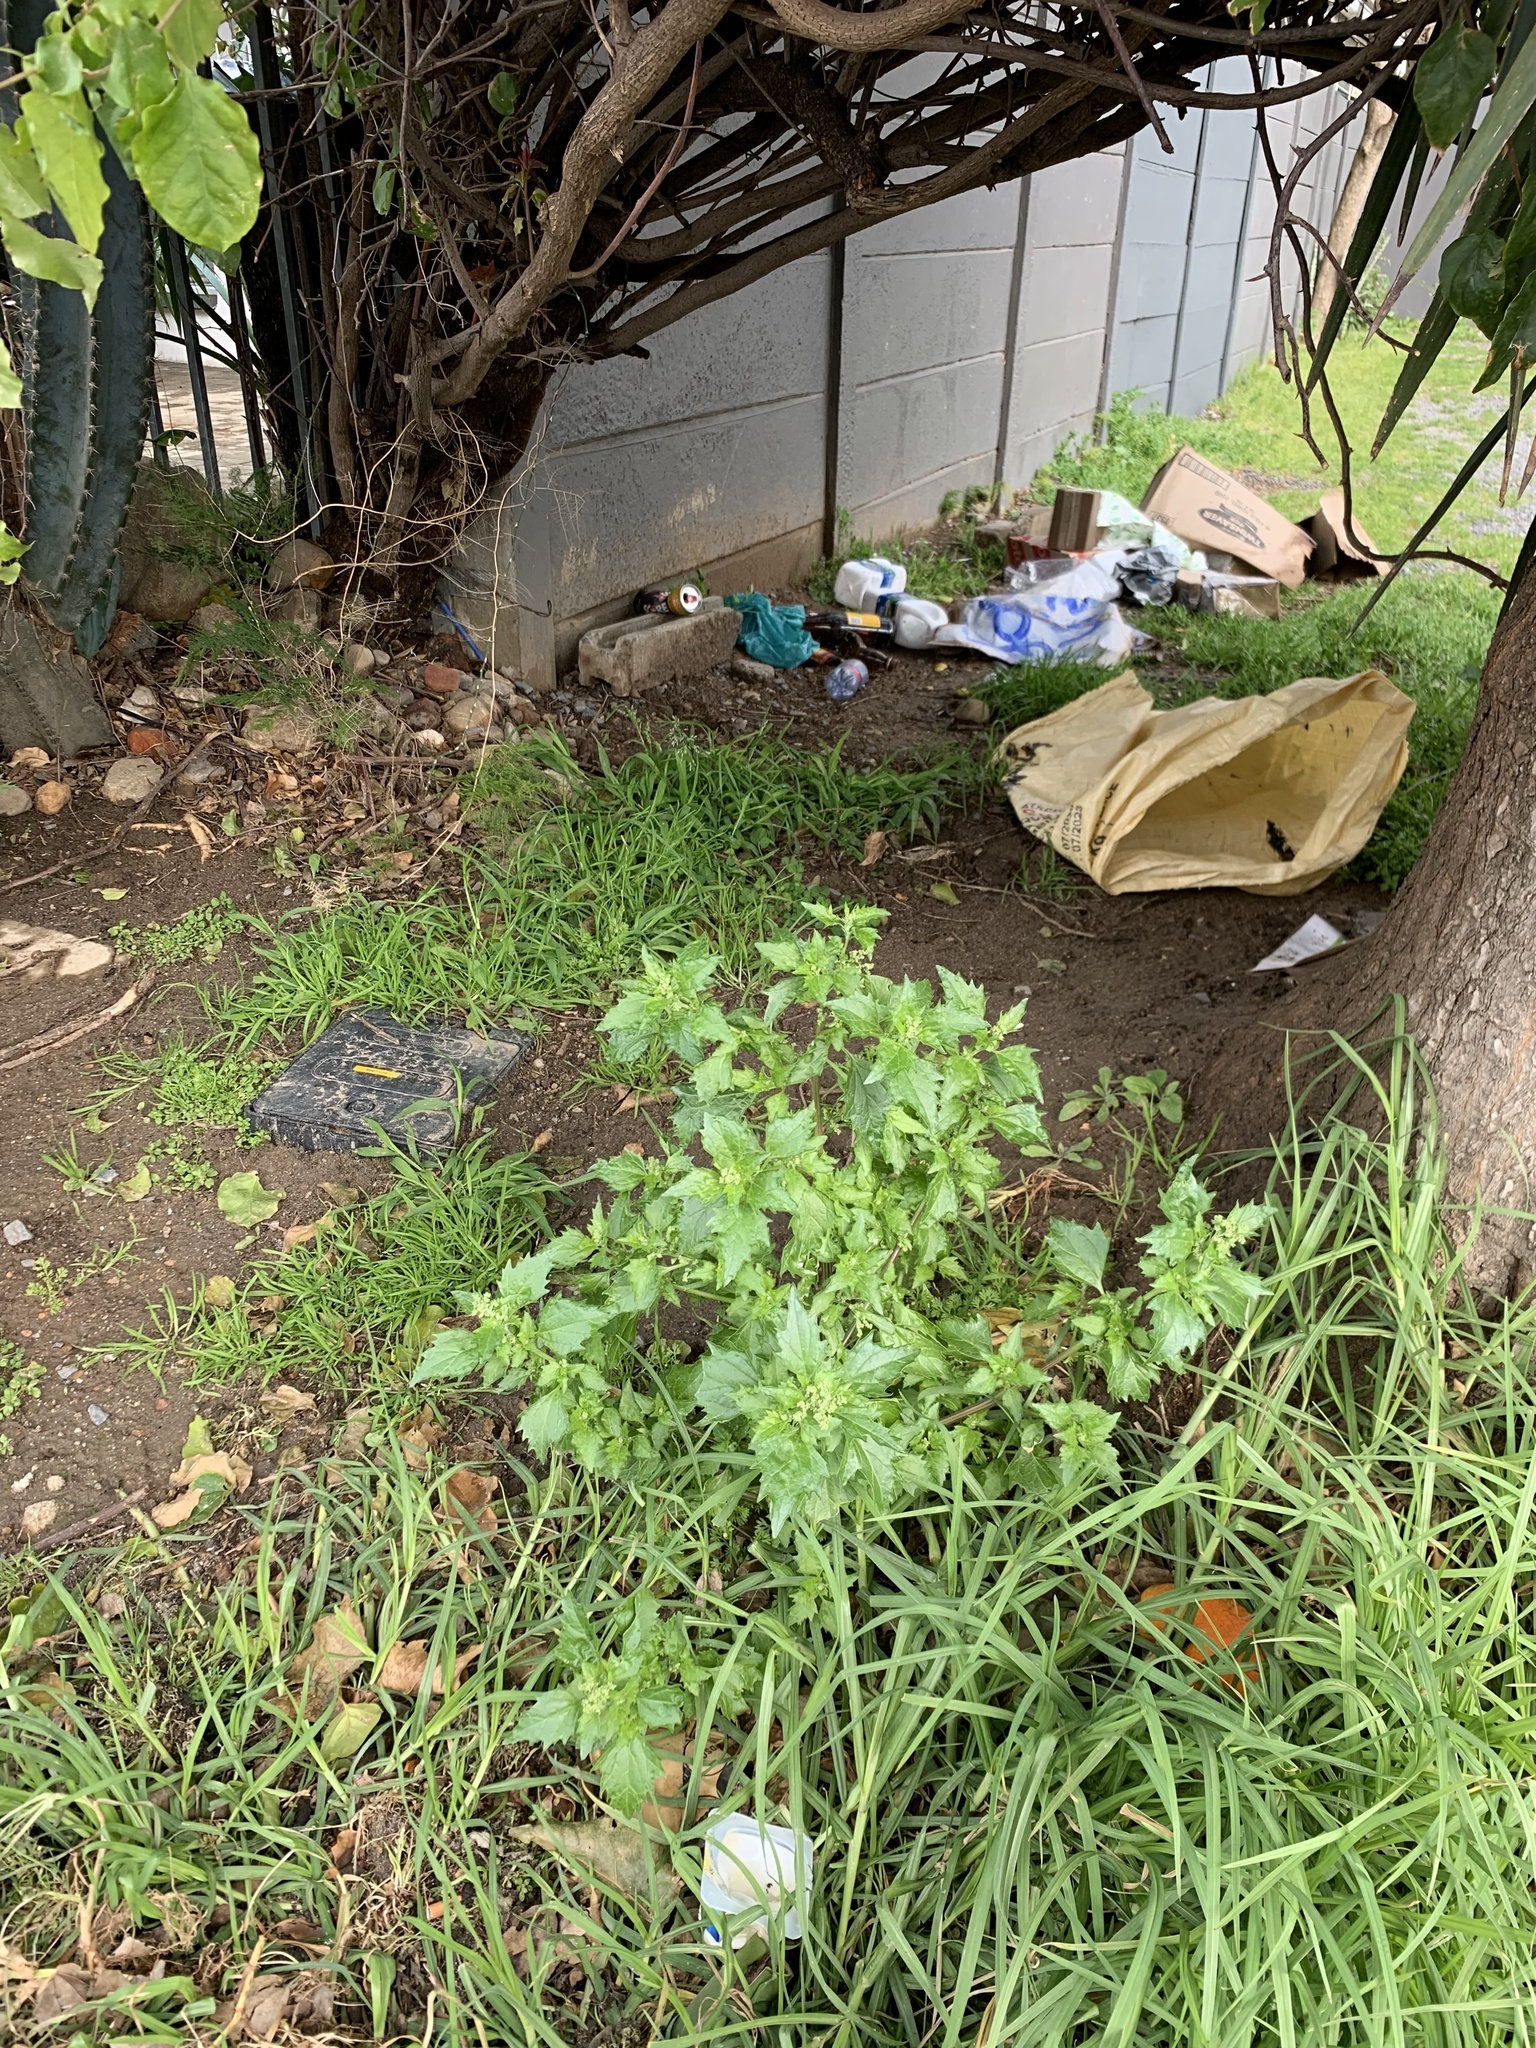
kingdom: Plantae
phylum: Tracheophyta
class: Magnoliopsida
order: Caryophyllales
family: Amaranthaceae
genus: Chenopodiastrum
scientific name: Chenopodiastrum murale
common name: Sowbane
